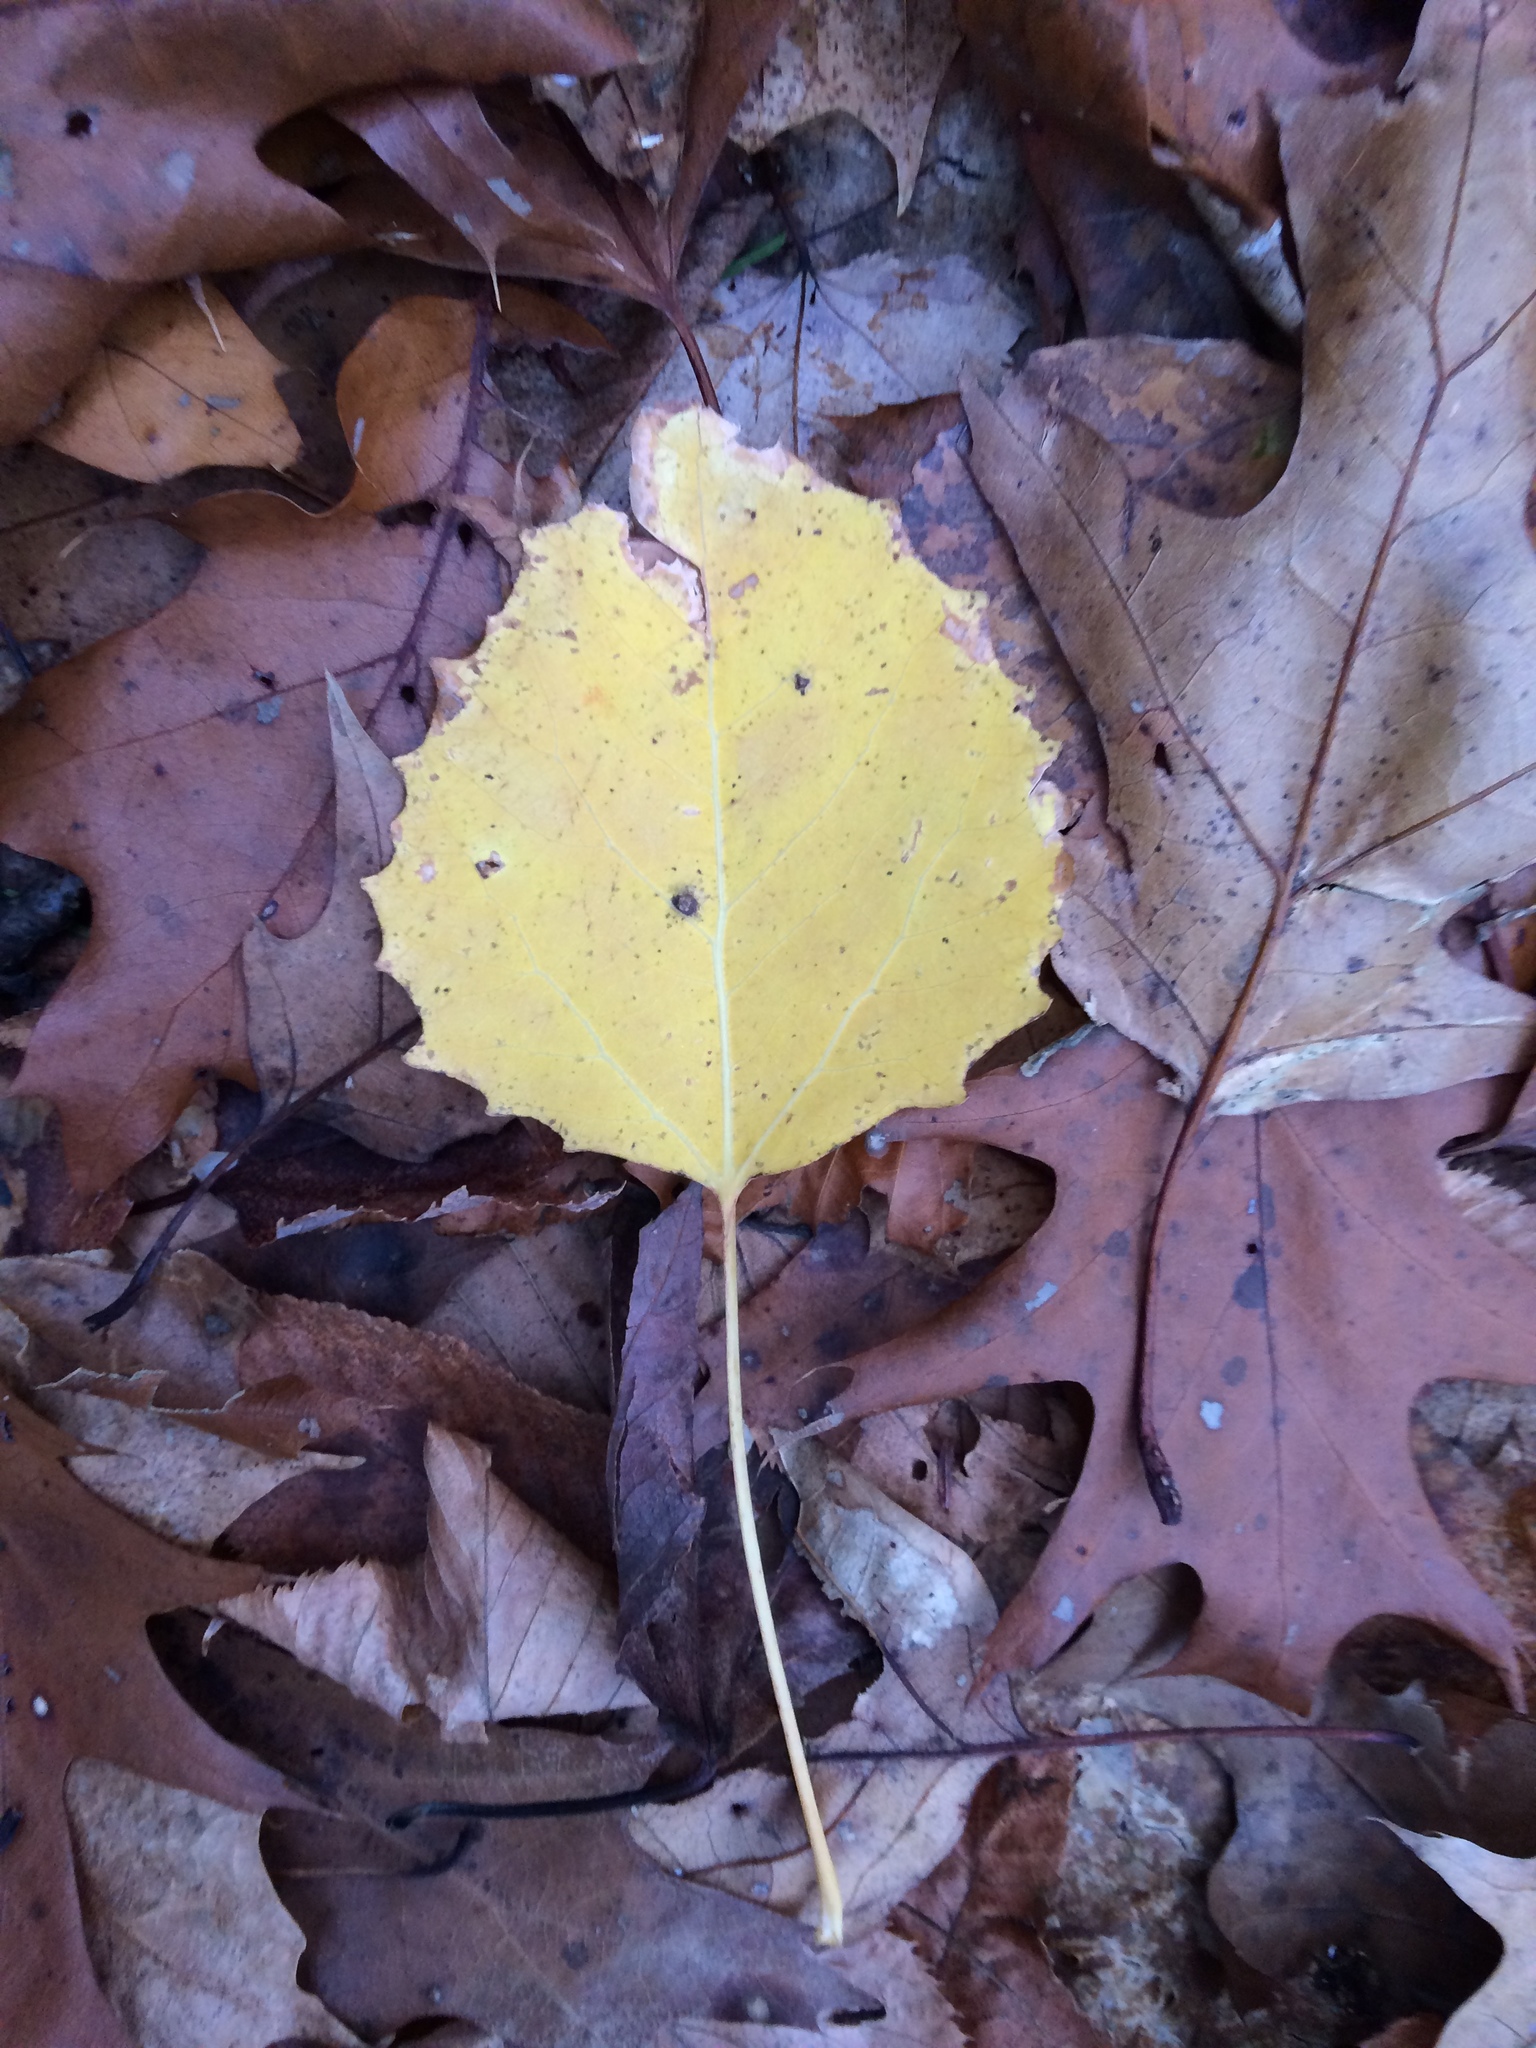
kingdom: Plantae
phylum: Tracheophyta
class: Magnoliopsida
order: Malpighiales
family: Salicaceae
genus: Populus
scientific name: Populus grandidentata
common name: Bigtooth aspen
